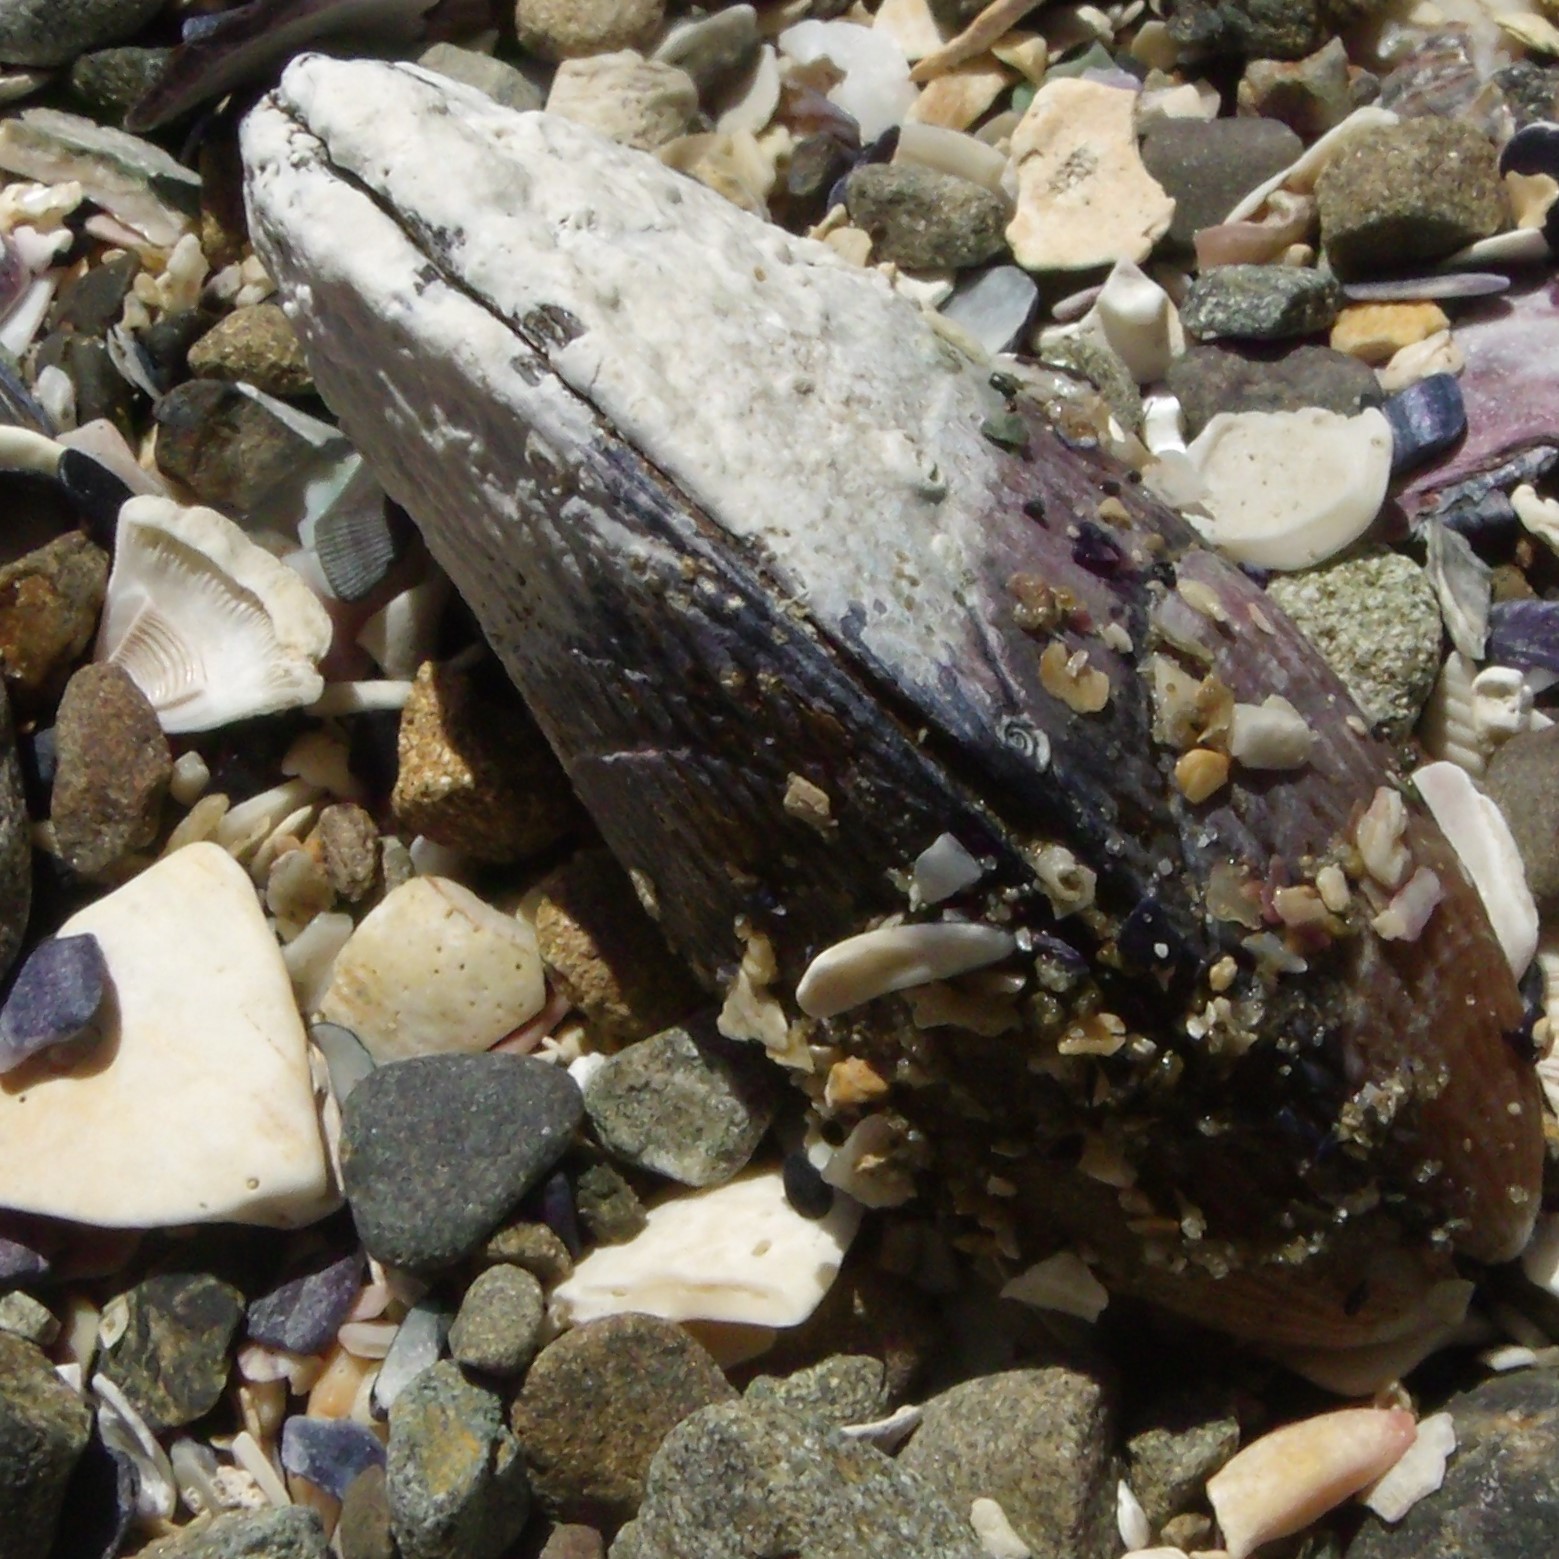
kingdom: Animalia
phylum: Mollusca
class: Bivalvia
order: Mytilida
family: Mytilidae
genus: Aulacomya
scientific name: Aulacomya maoriana
